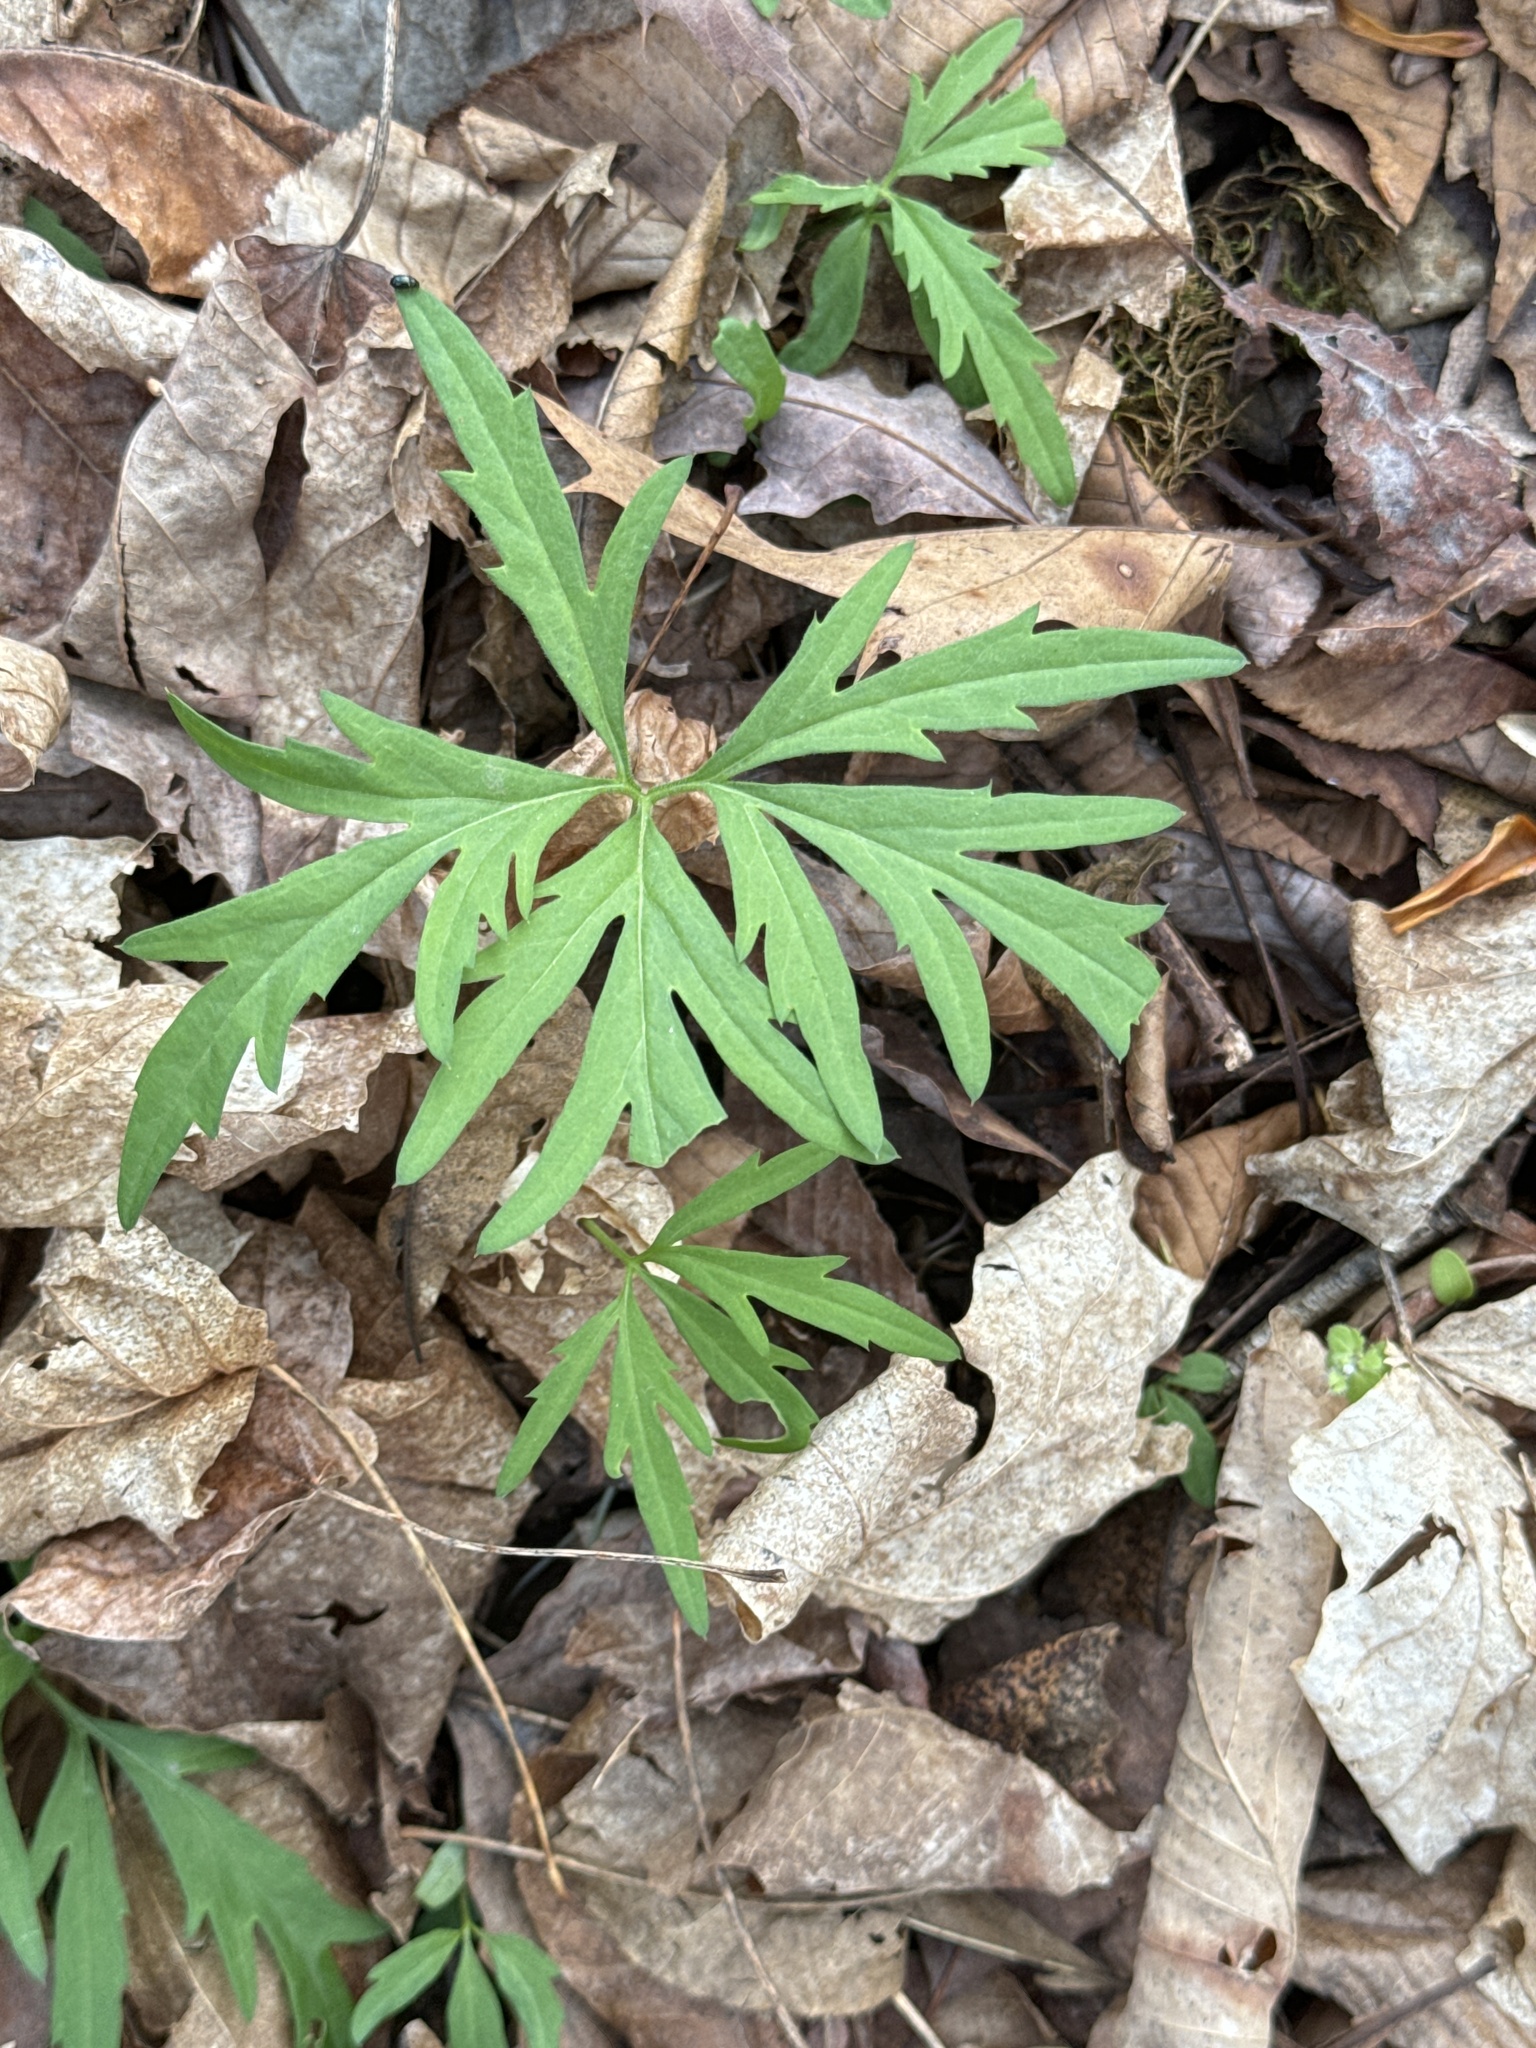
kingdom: Plantae
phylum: Tracheophyta
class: Magnoliopsida
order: Brassicales
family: Brassicaceae
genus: Cardamine
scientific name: Cardamine concatenata
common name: Cut-leaf toothcup
